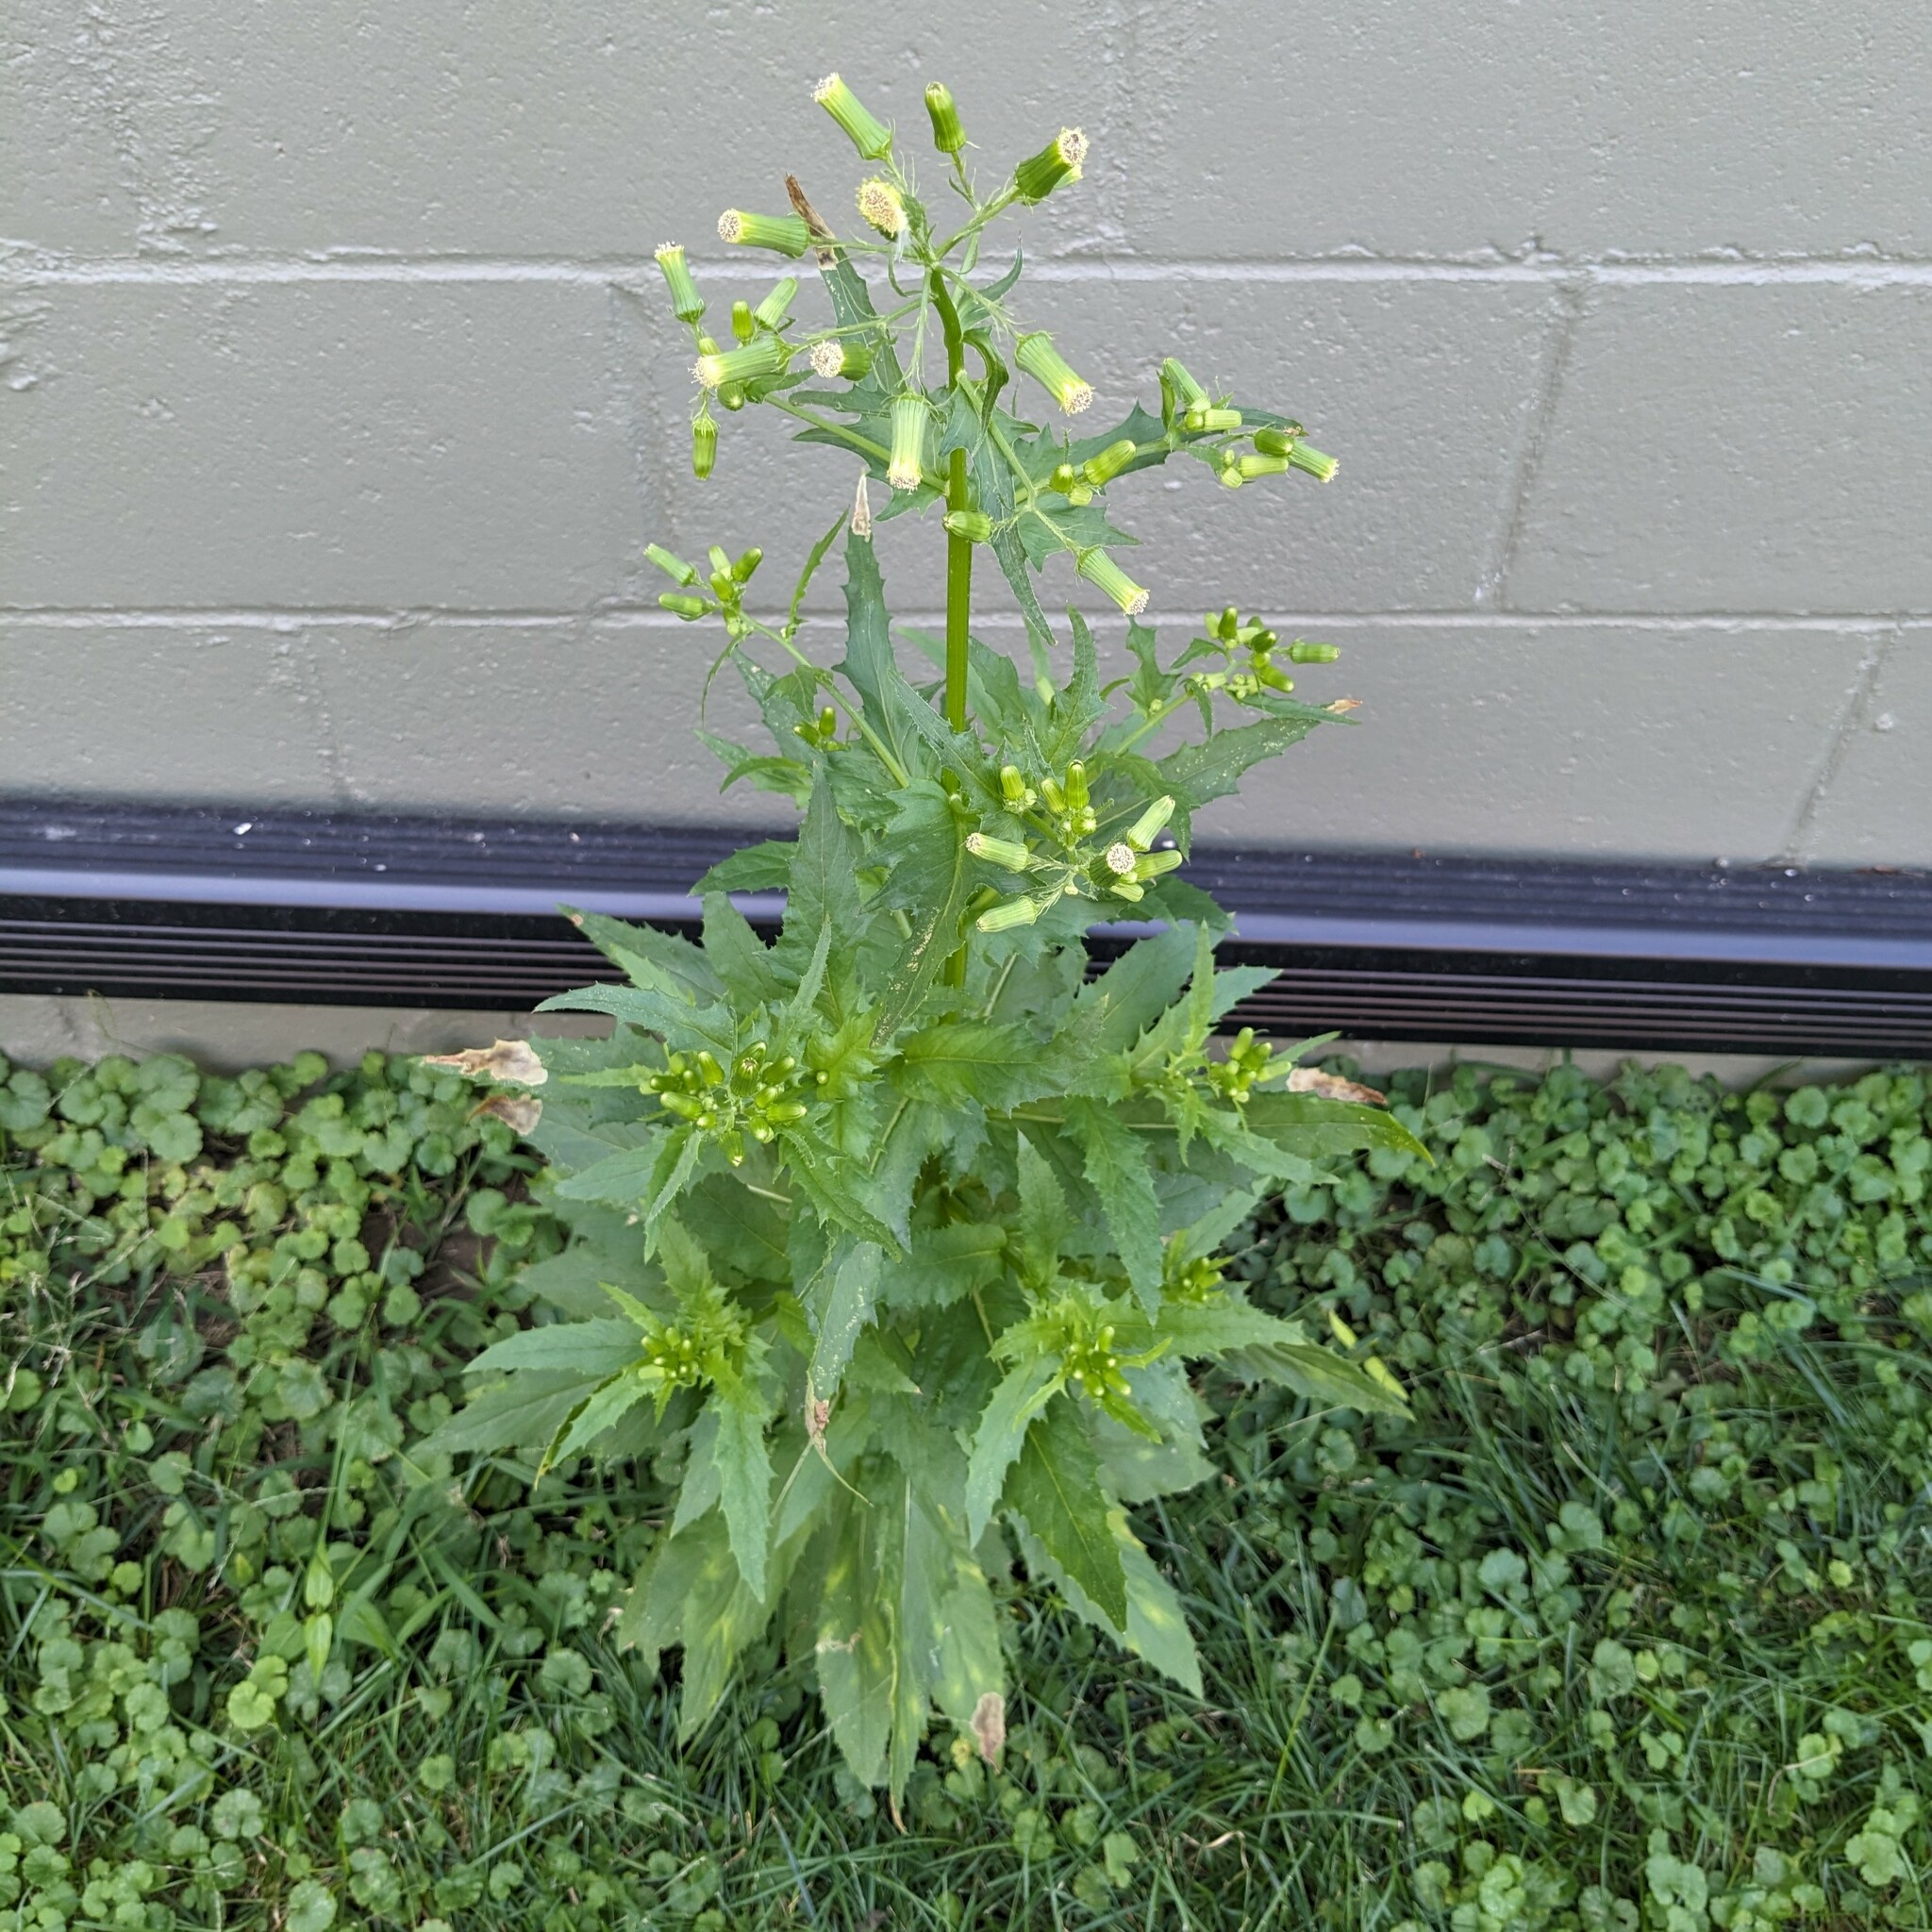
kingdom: Plantae
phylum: Tracheophyta
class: Magnoliopsida
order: Asterales
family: Asteraceae
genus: Erechtites
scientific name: Erechtites hieraciifolius
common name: American burnweed
